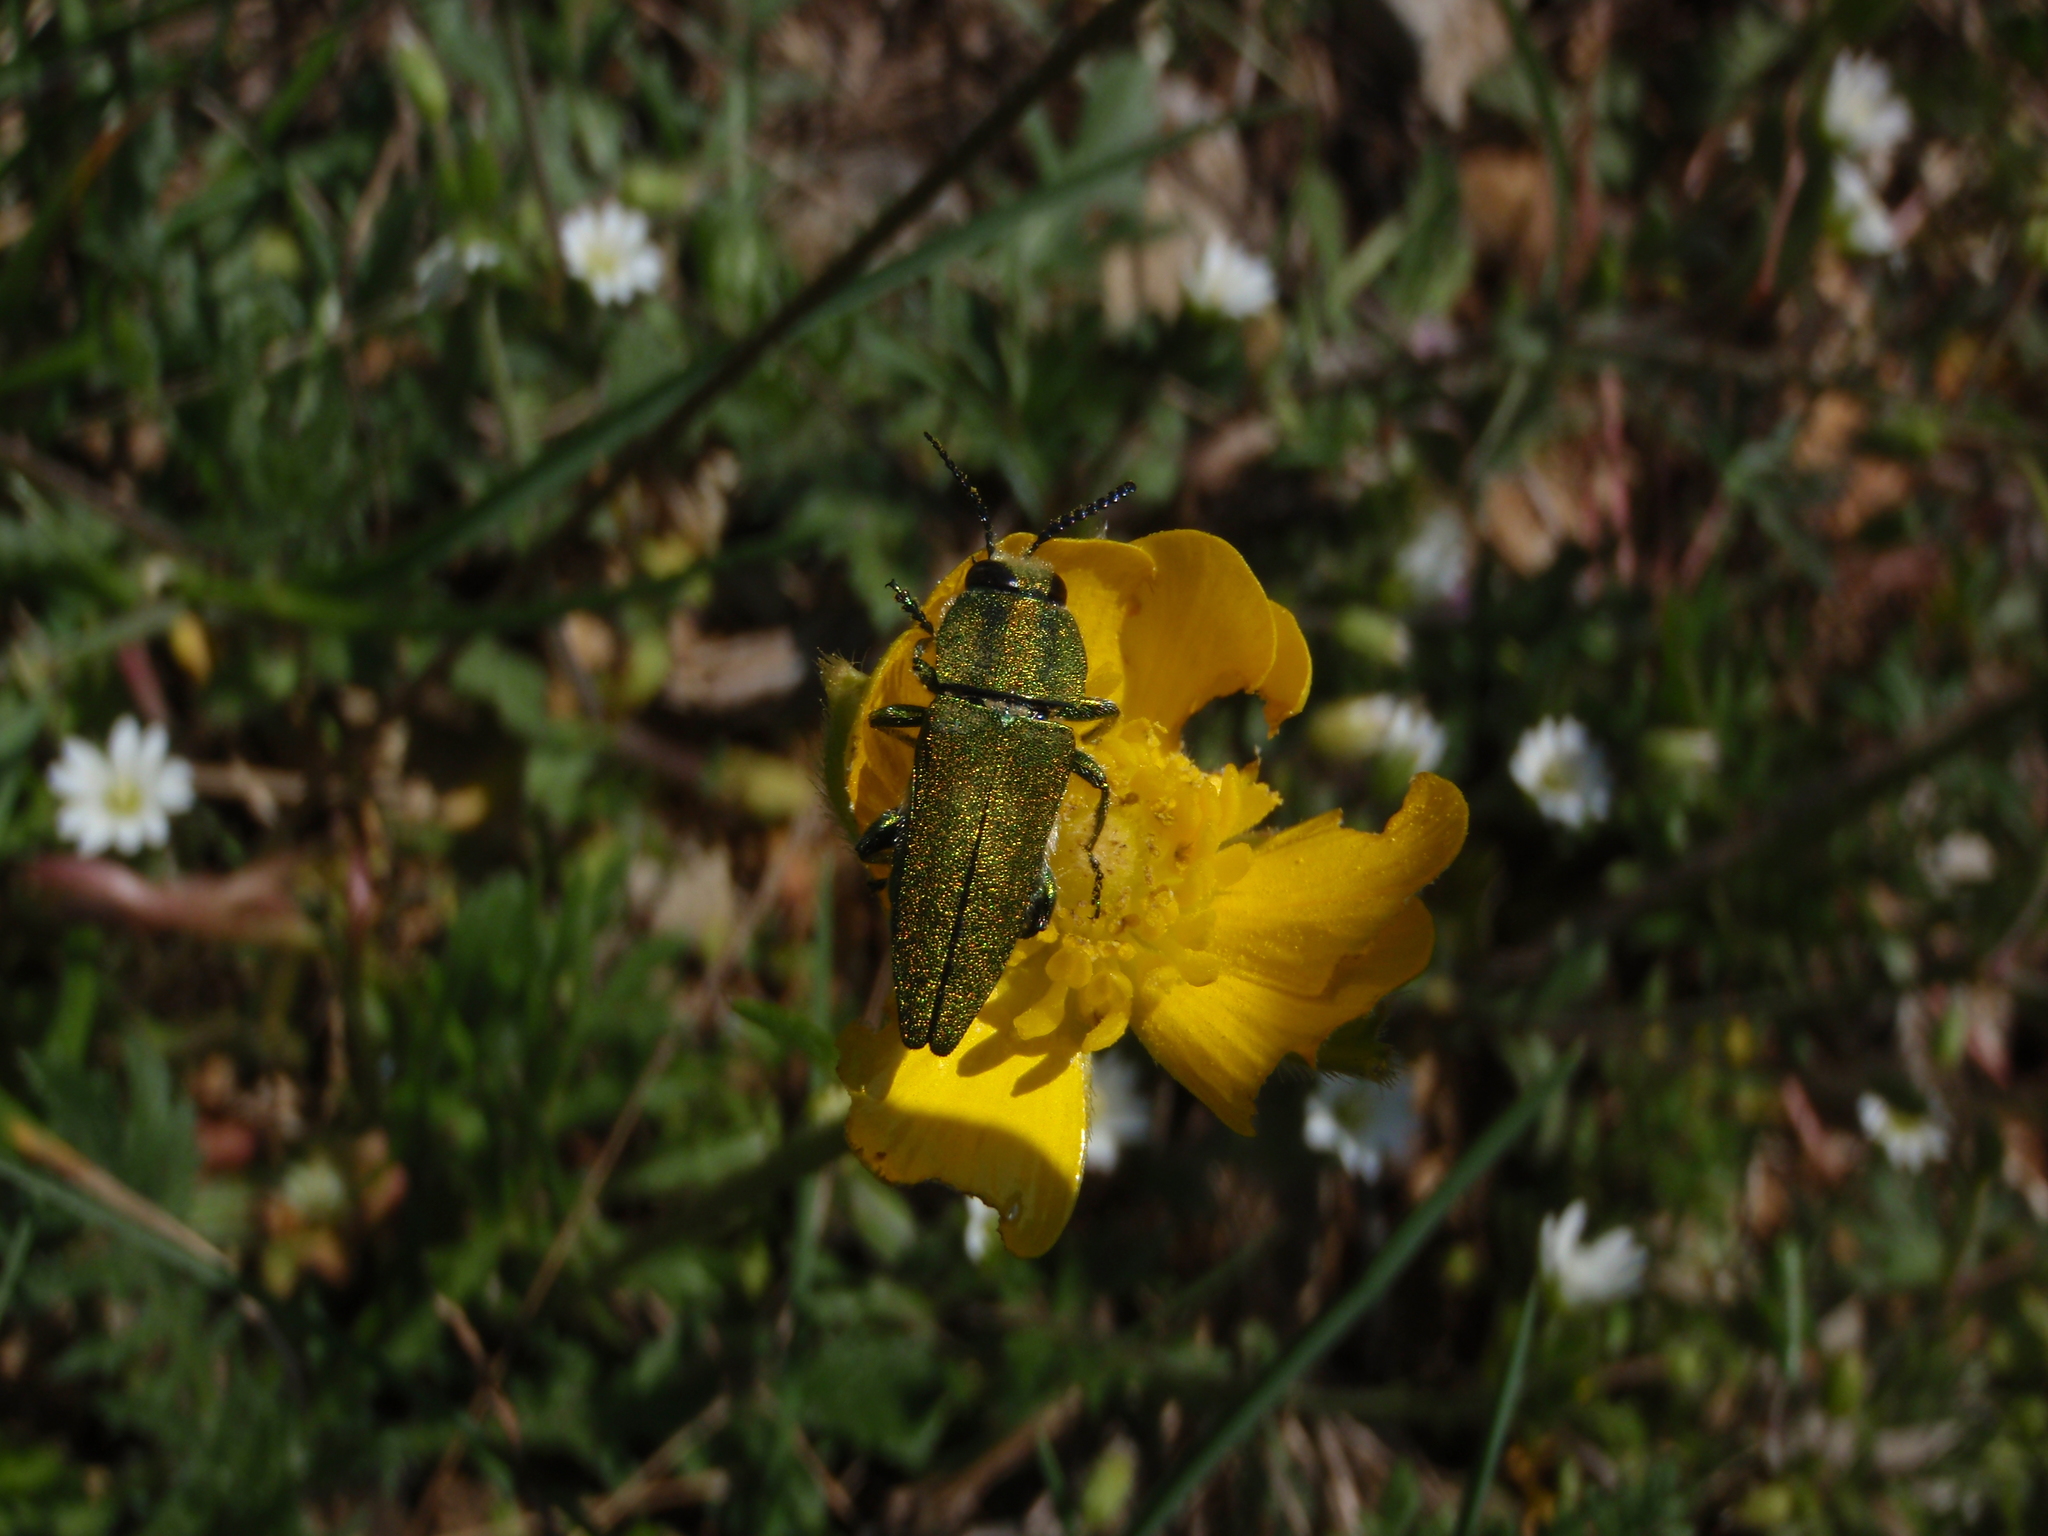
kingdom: Animalia
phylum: Arthropoda
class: Insecta
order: Coleoptera
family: Buprestidae
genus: Anthaxia
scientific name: Anthaxia hungarica
